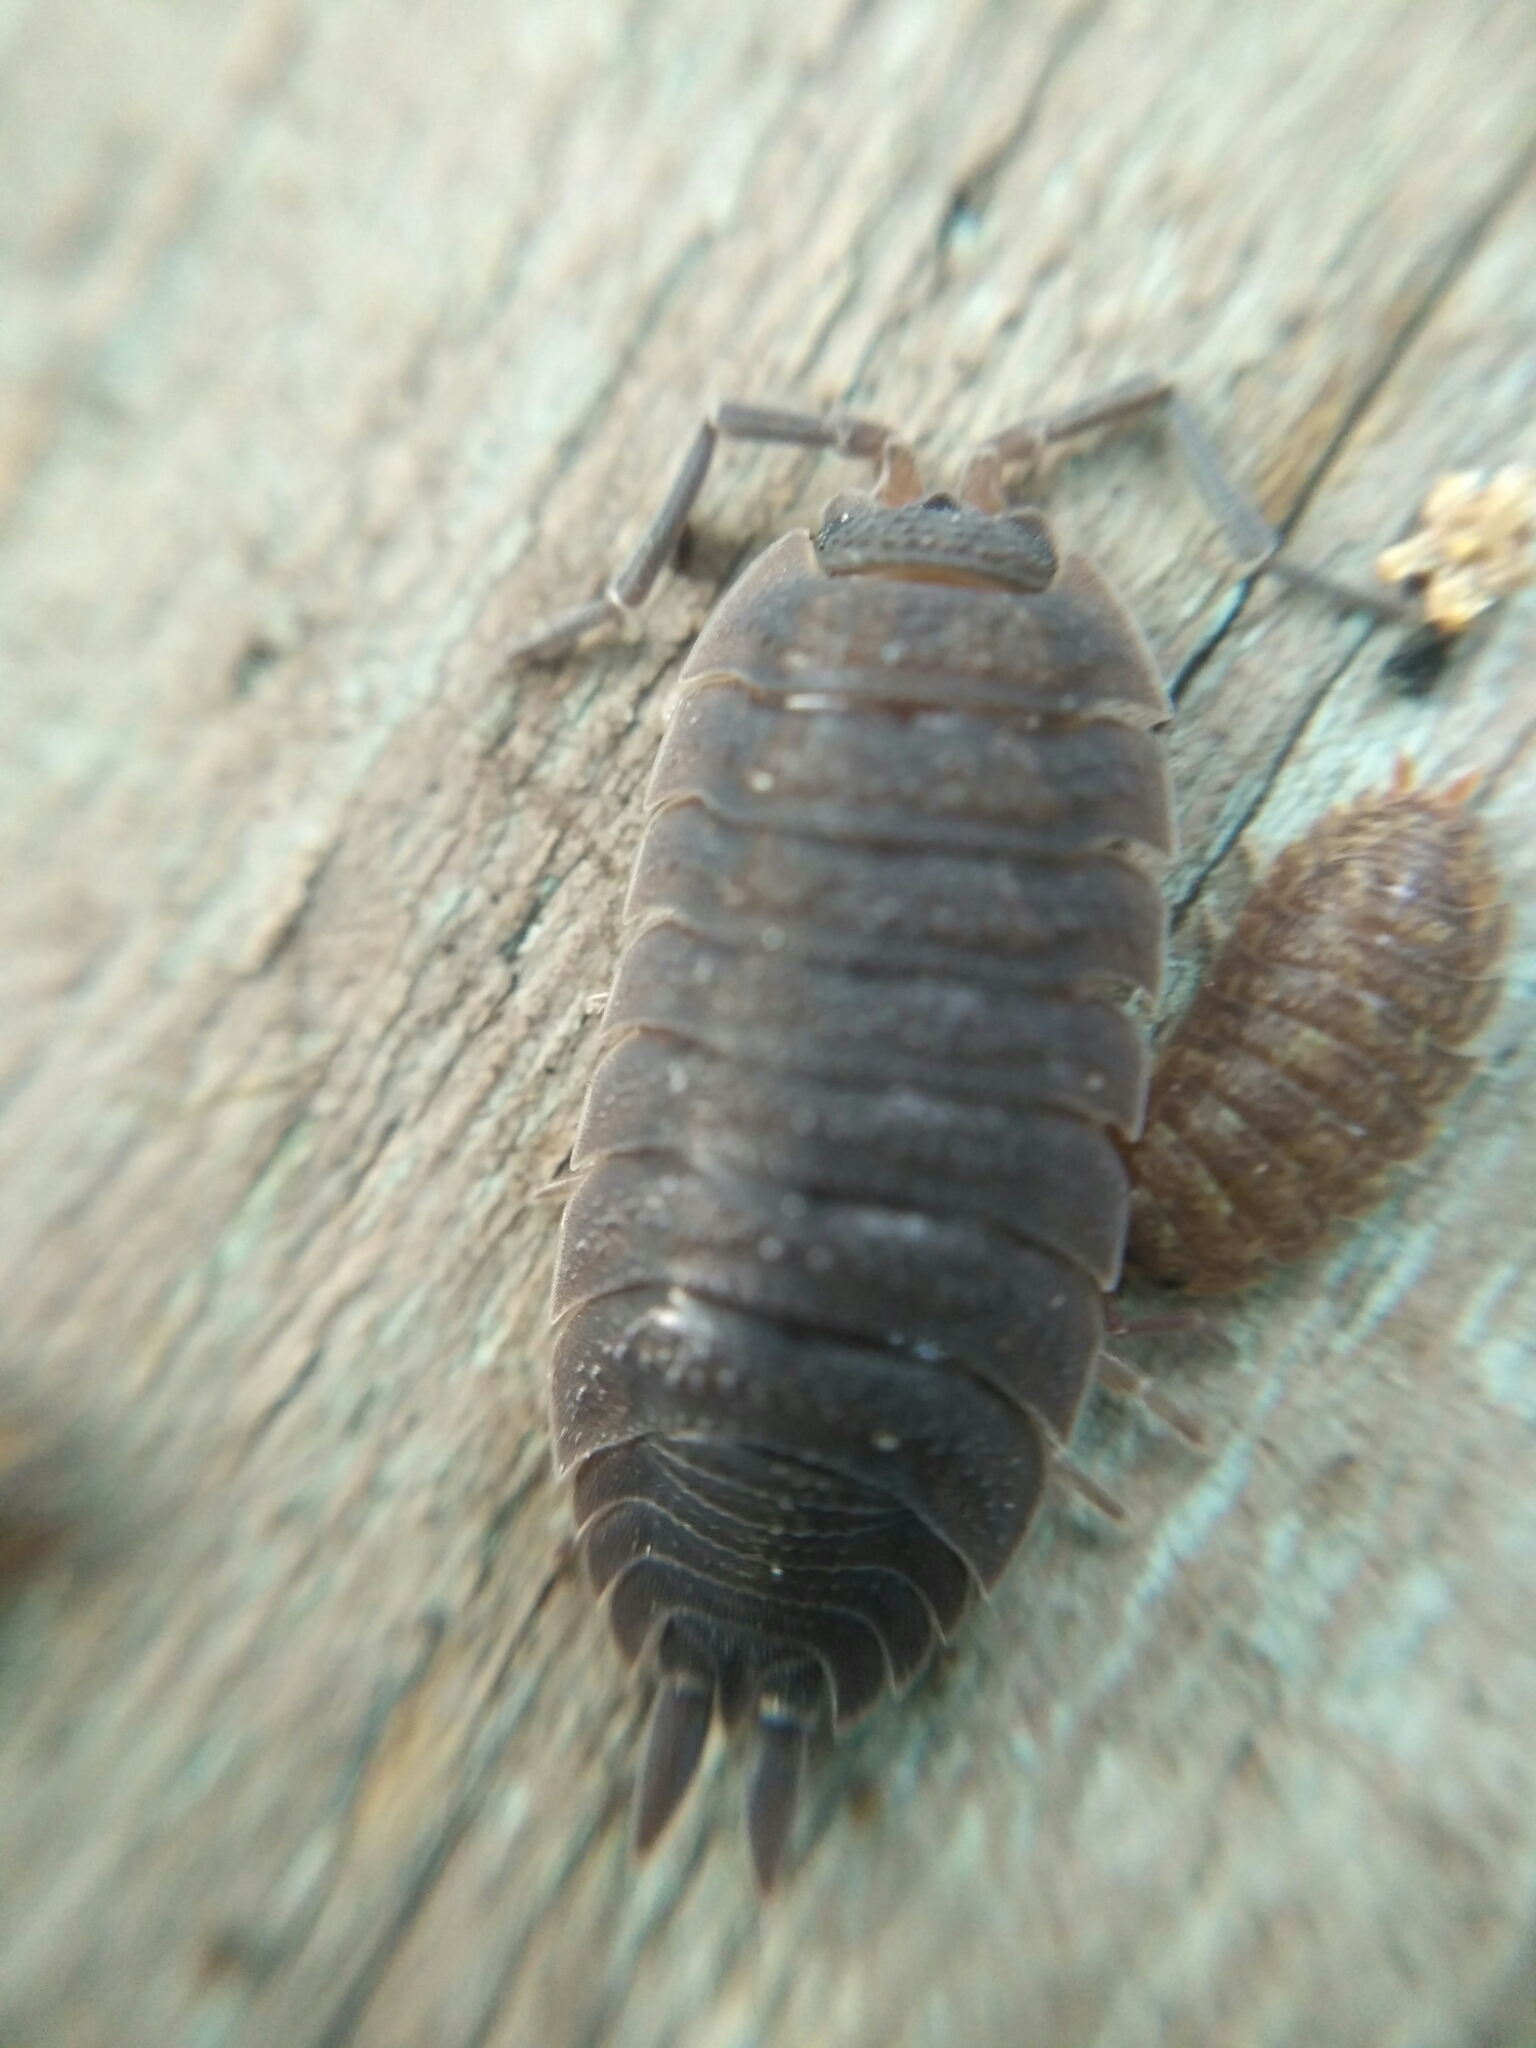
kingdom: Animalia
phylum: Arthropoda
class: Malacostraca
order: Isopoda
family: Porcellionidae
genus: Porcellio
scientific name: Porcellio scaber
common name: Common rough woodlouse
